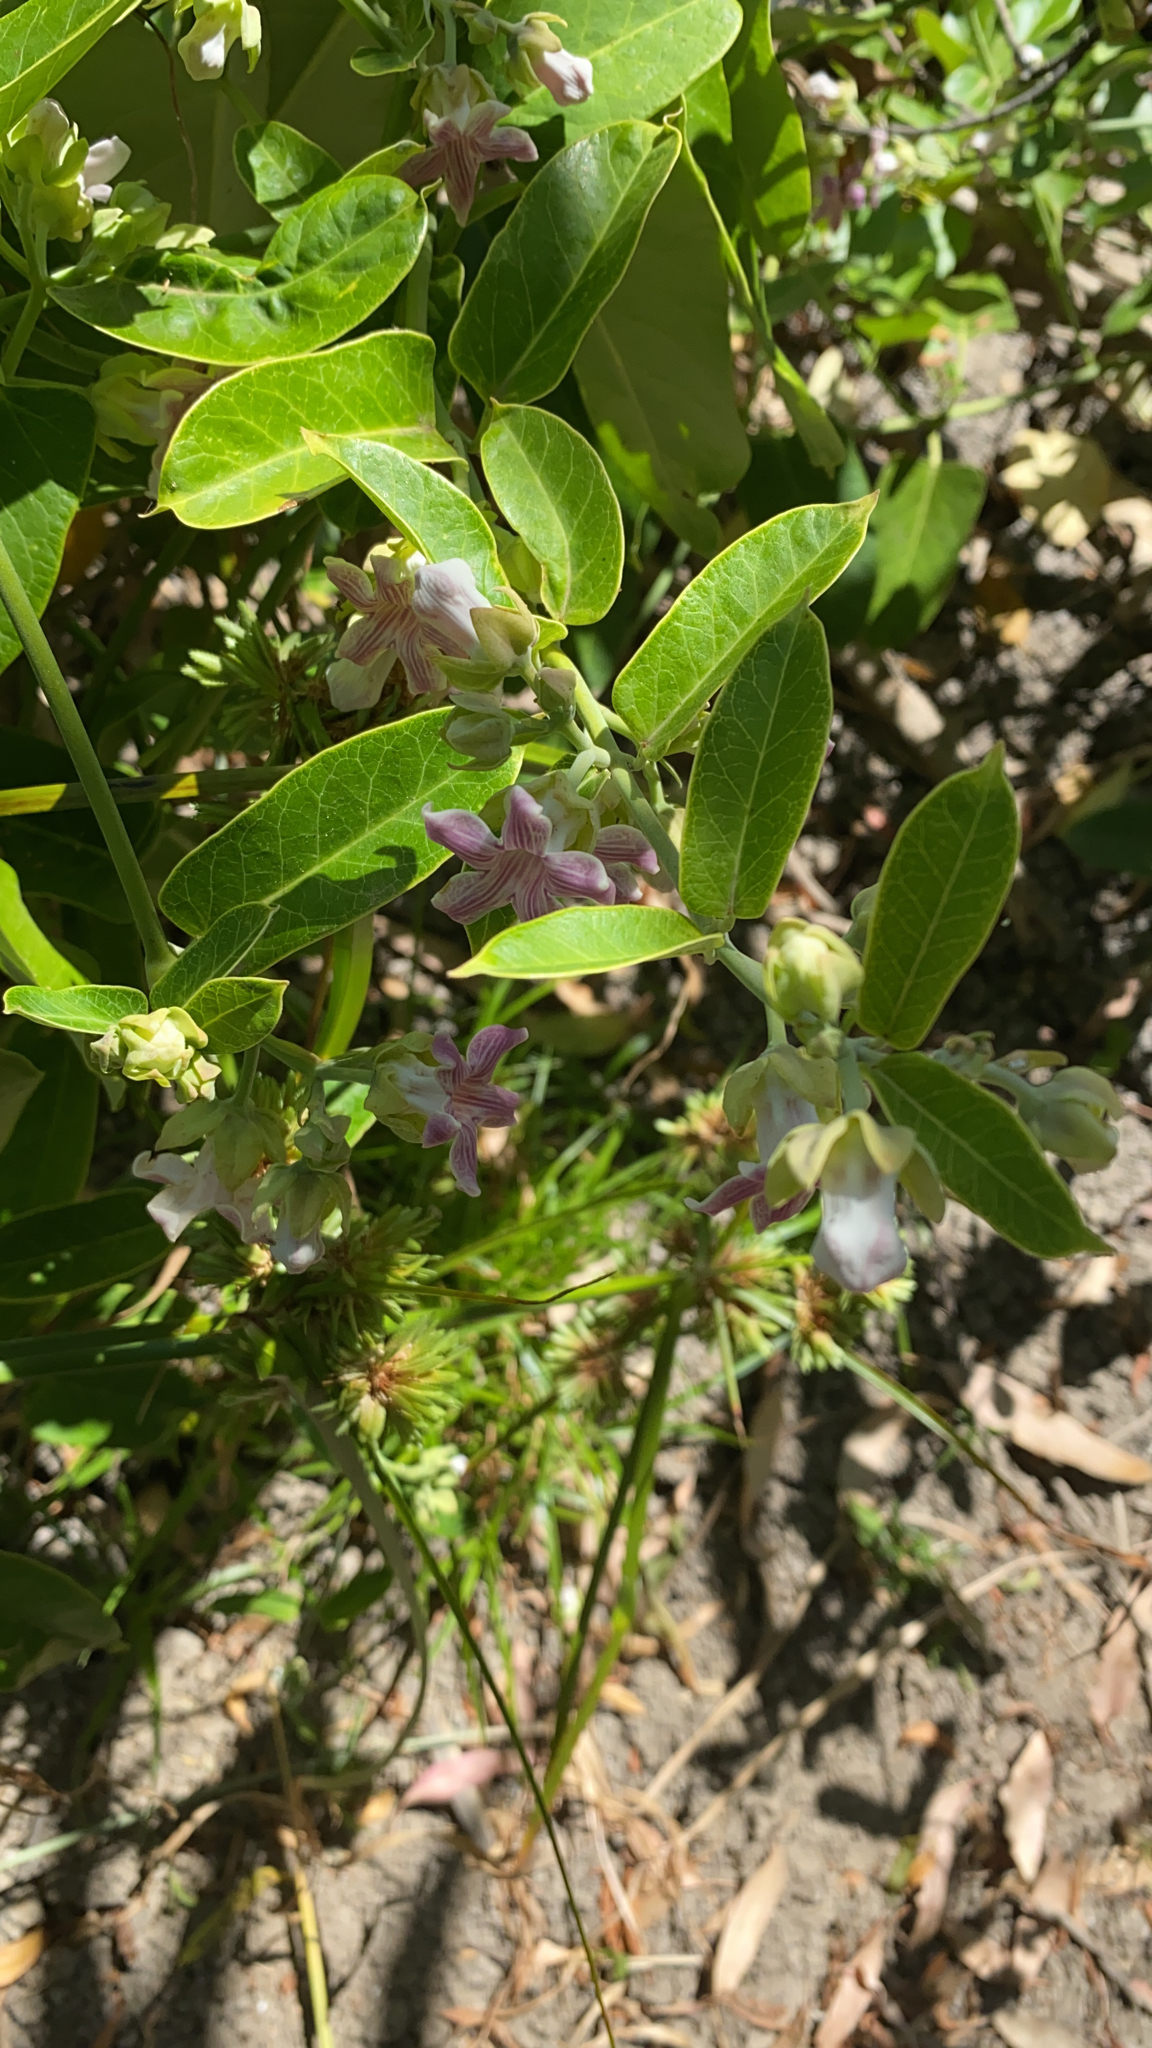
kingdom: Plantae
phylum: Tracheophyta
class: Magnoliopsida
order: Gentianales
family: Apocynaceae
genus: Araujia
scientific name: Araujia sericifera
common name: White bladderflower
